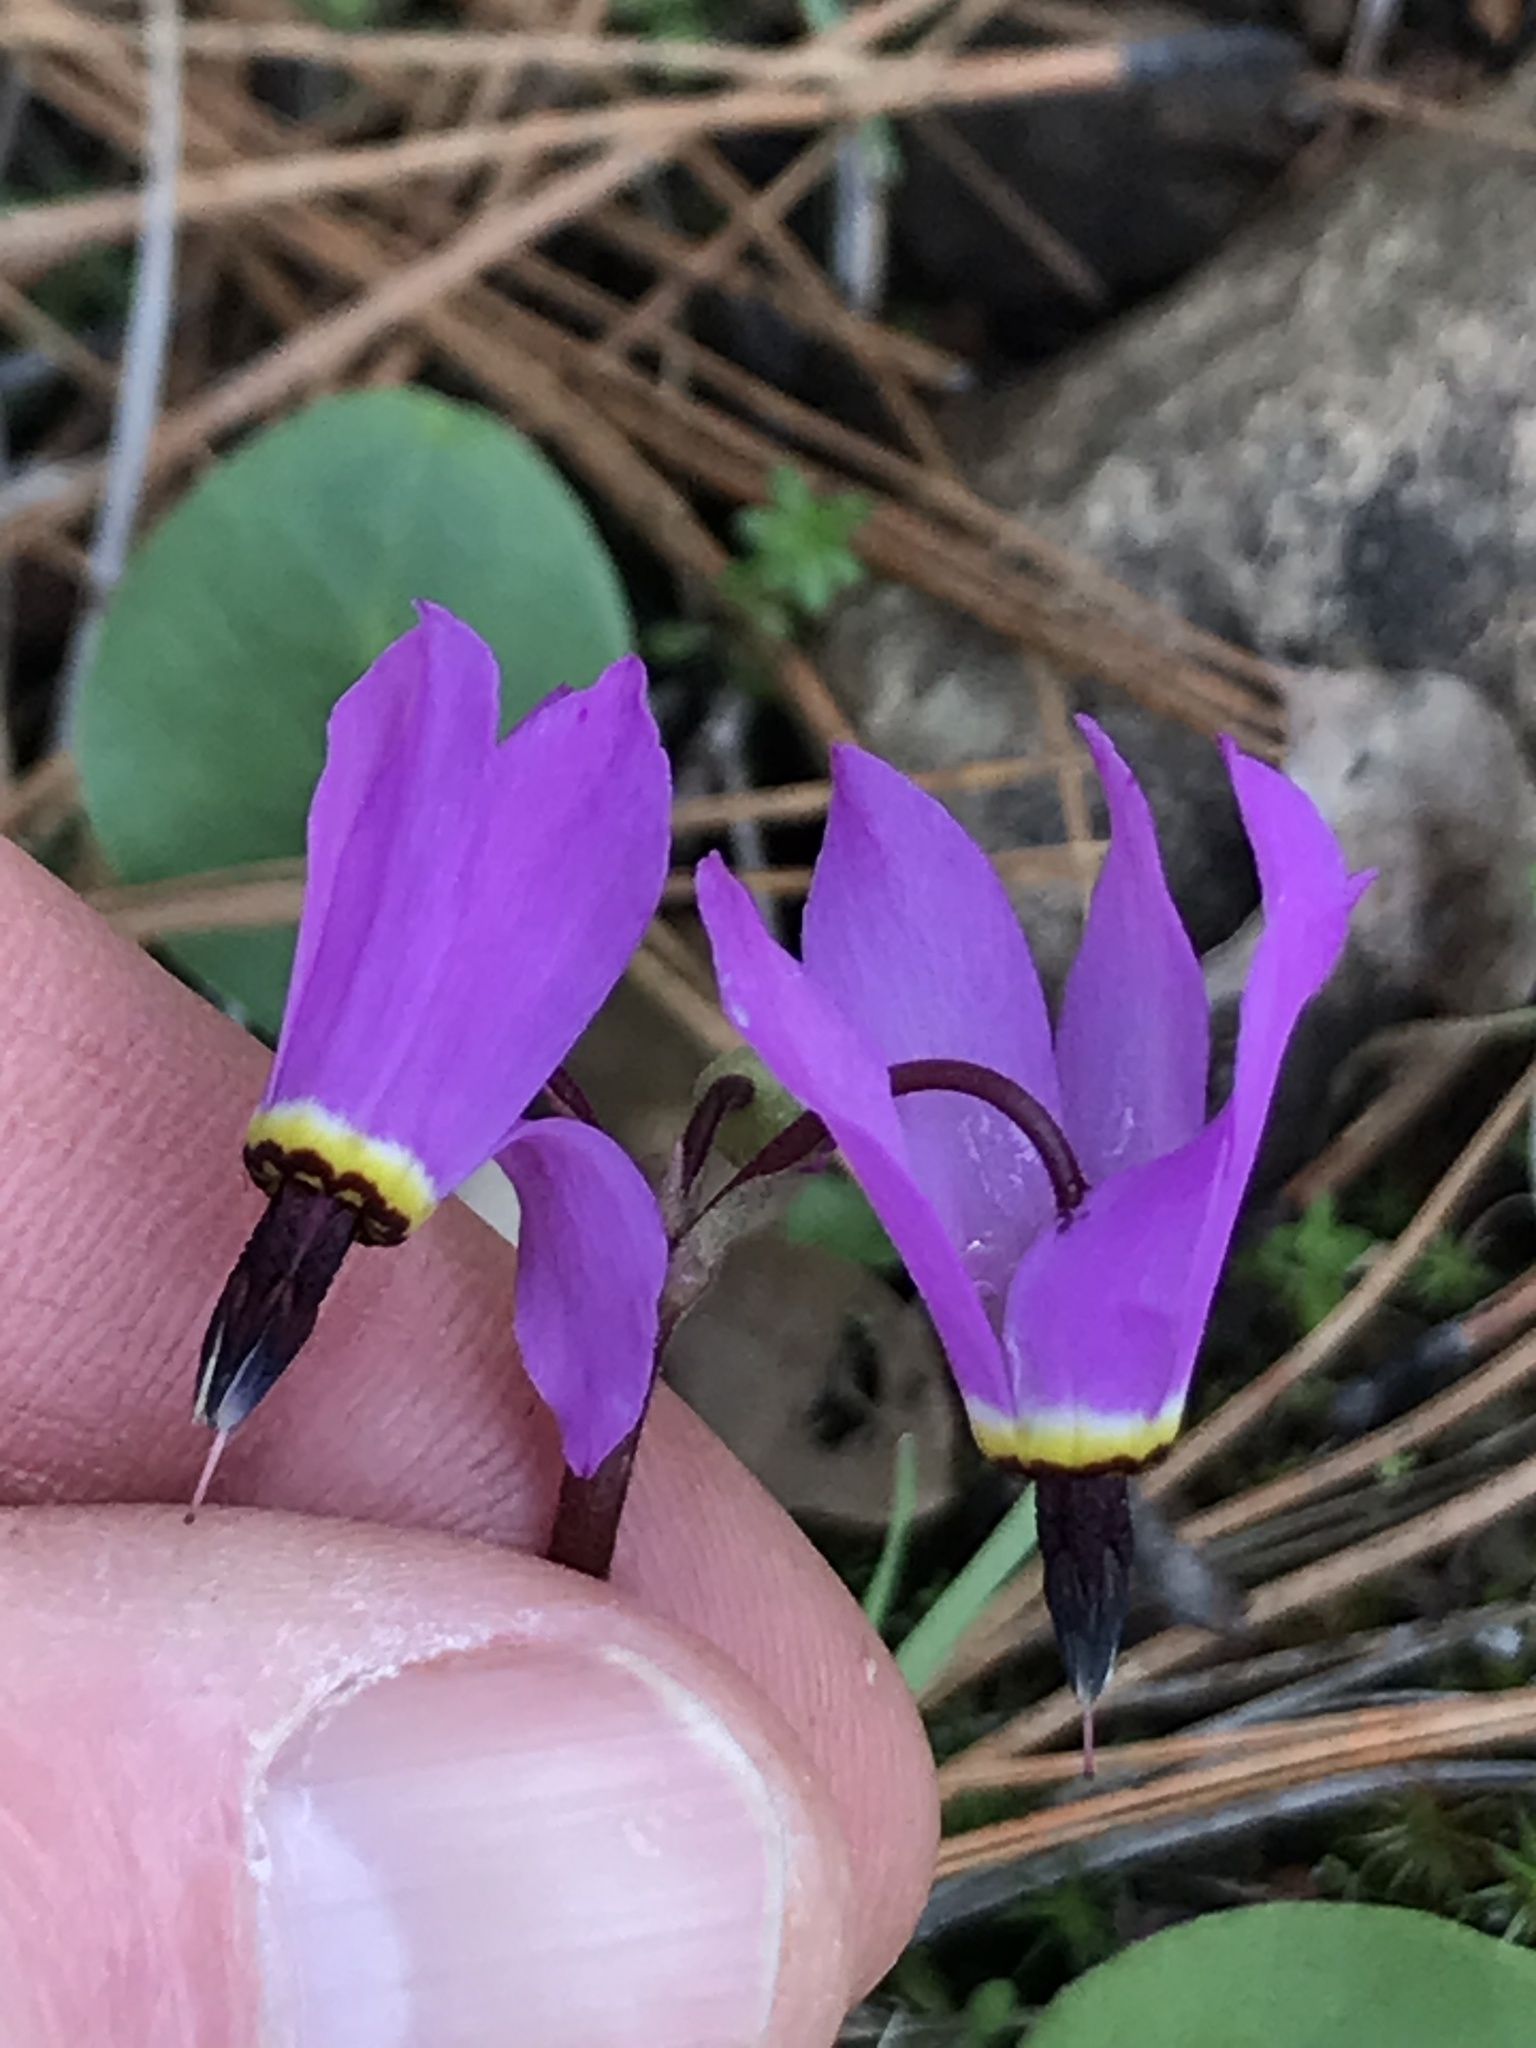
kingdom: Plantae
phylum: Tracheophyta
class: Magnoliopsida
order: Ericales
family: Primulaceae
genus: Dodecatheon
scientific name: Dodecatheon hendersonii
